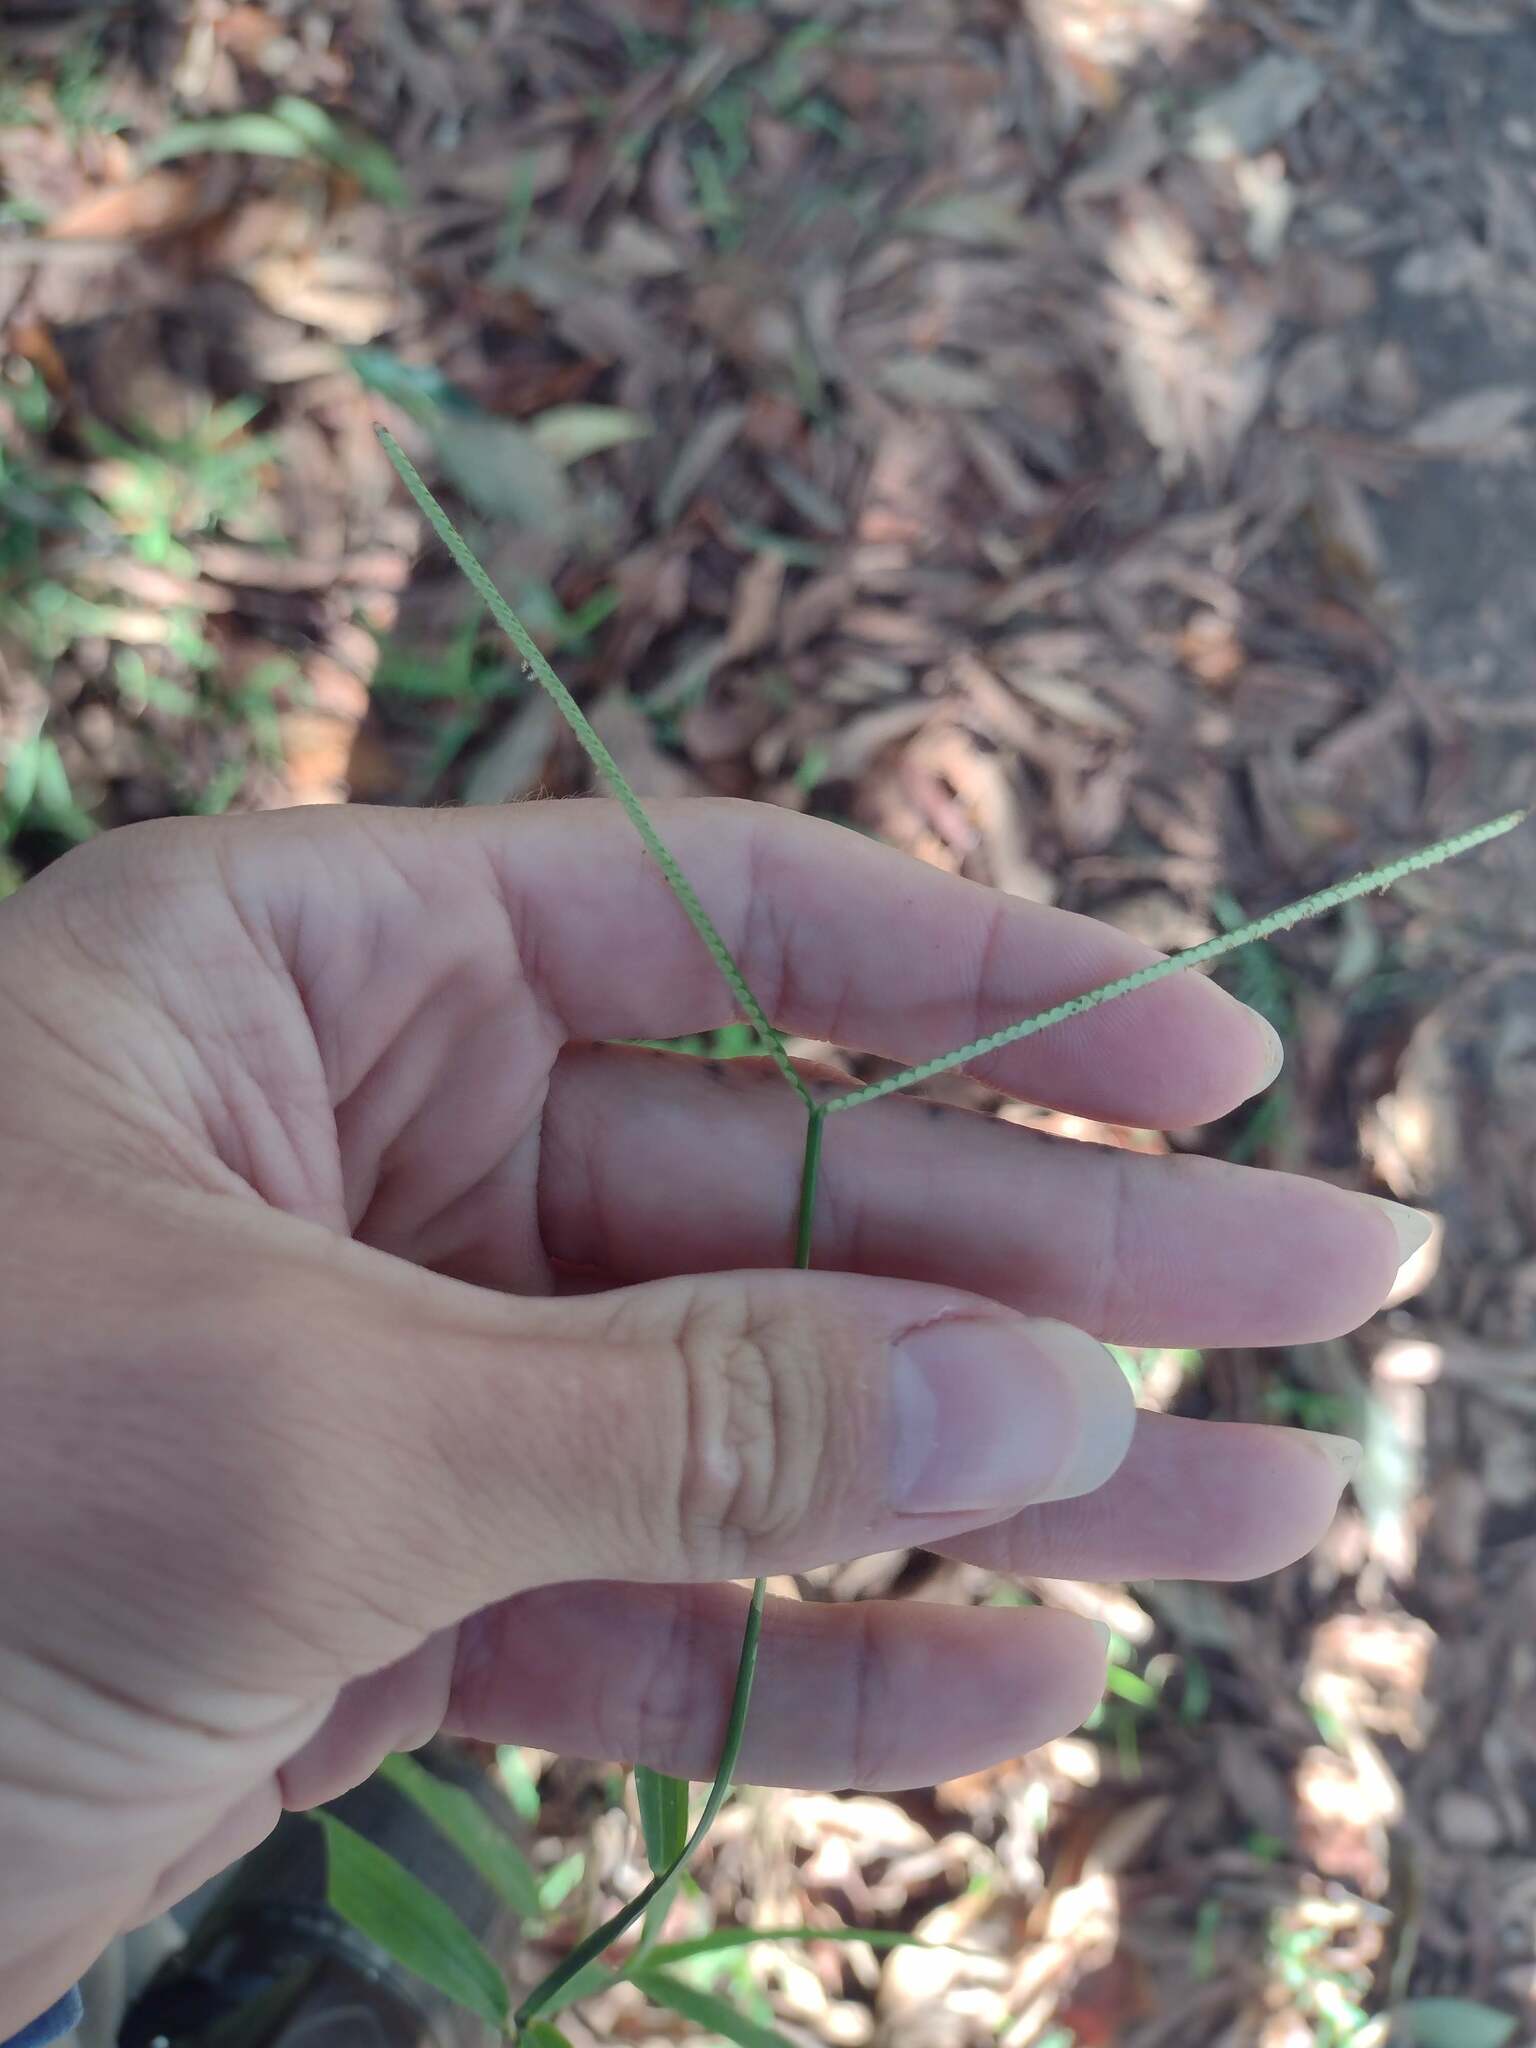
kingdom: Plantae
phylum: Tracheophyta
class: Liliopsida
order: Poales
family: Poaceae
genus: Paspalum
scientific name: Paspalum conjugatum
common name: Hilograss
